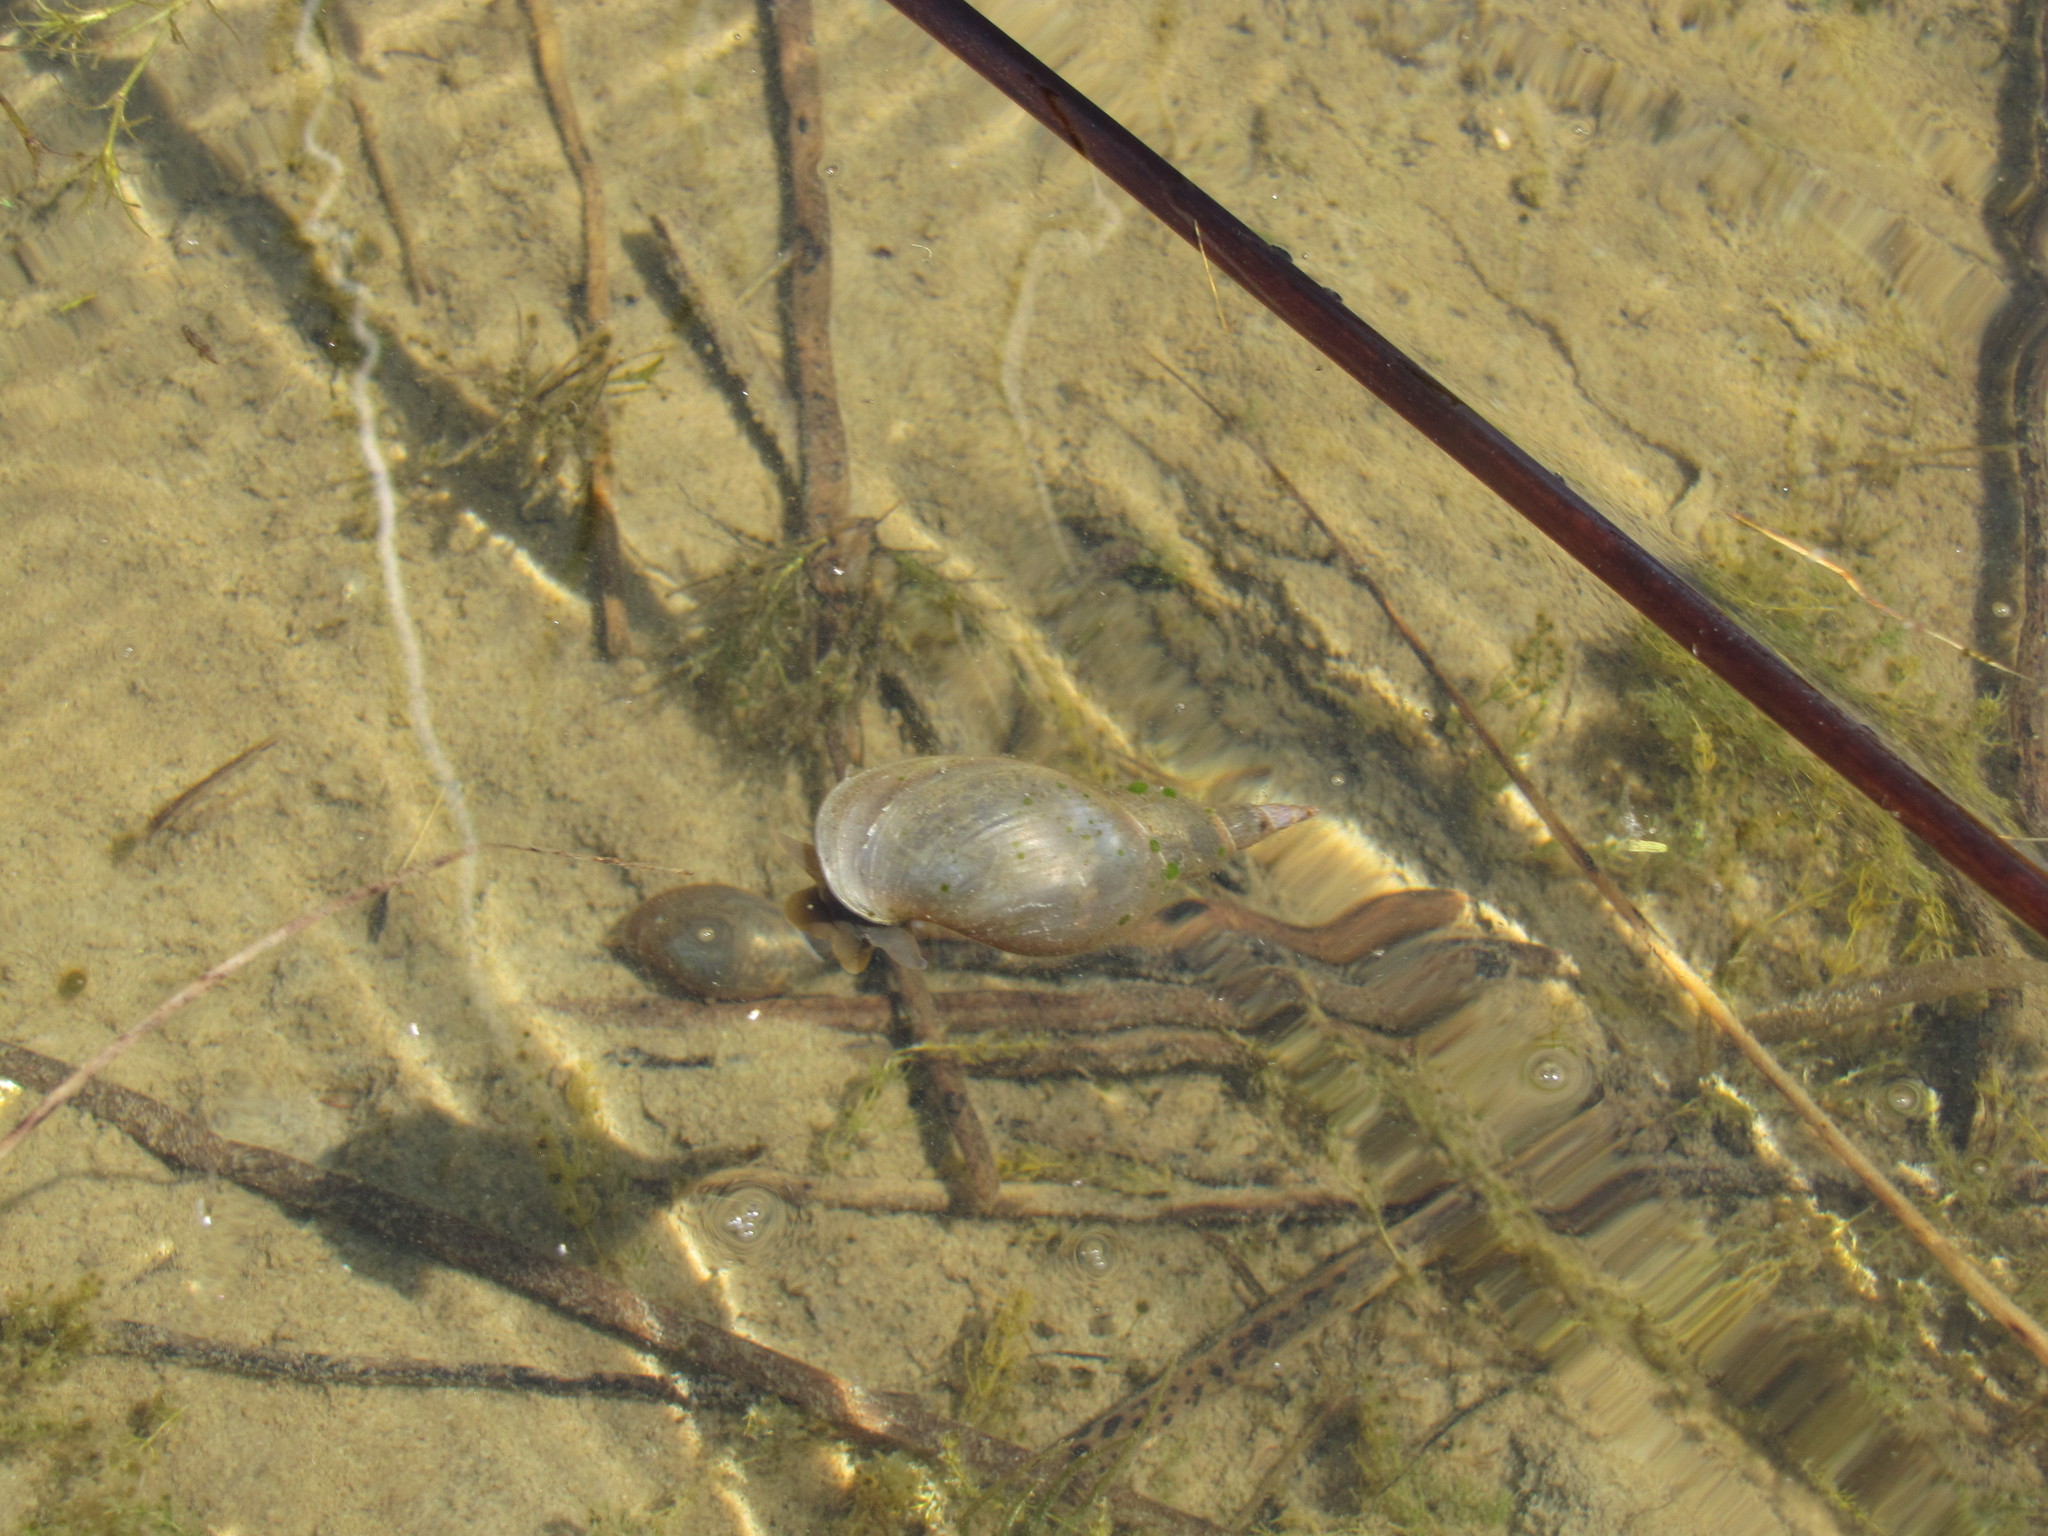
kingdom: Animalia
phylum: Mollusca
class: Gastropoda
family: Lymnaeidae
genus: Lymnaea
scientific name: Lymnaea stagnalis
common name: Great pond snail
